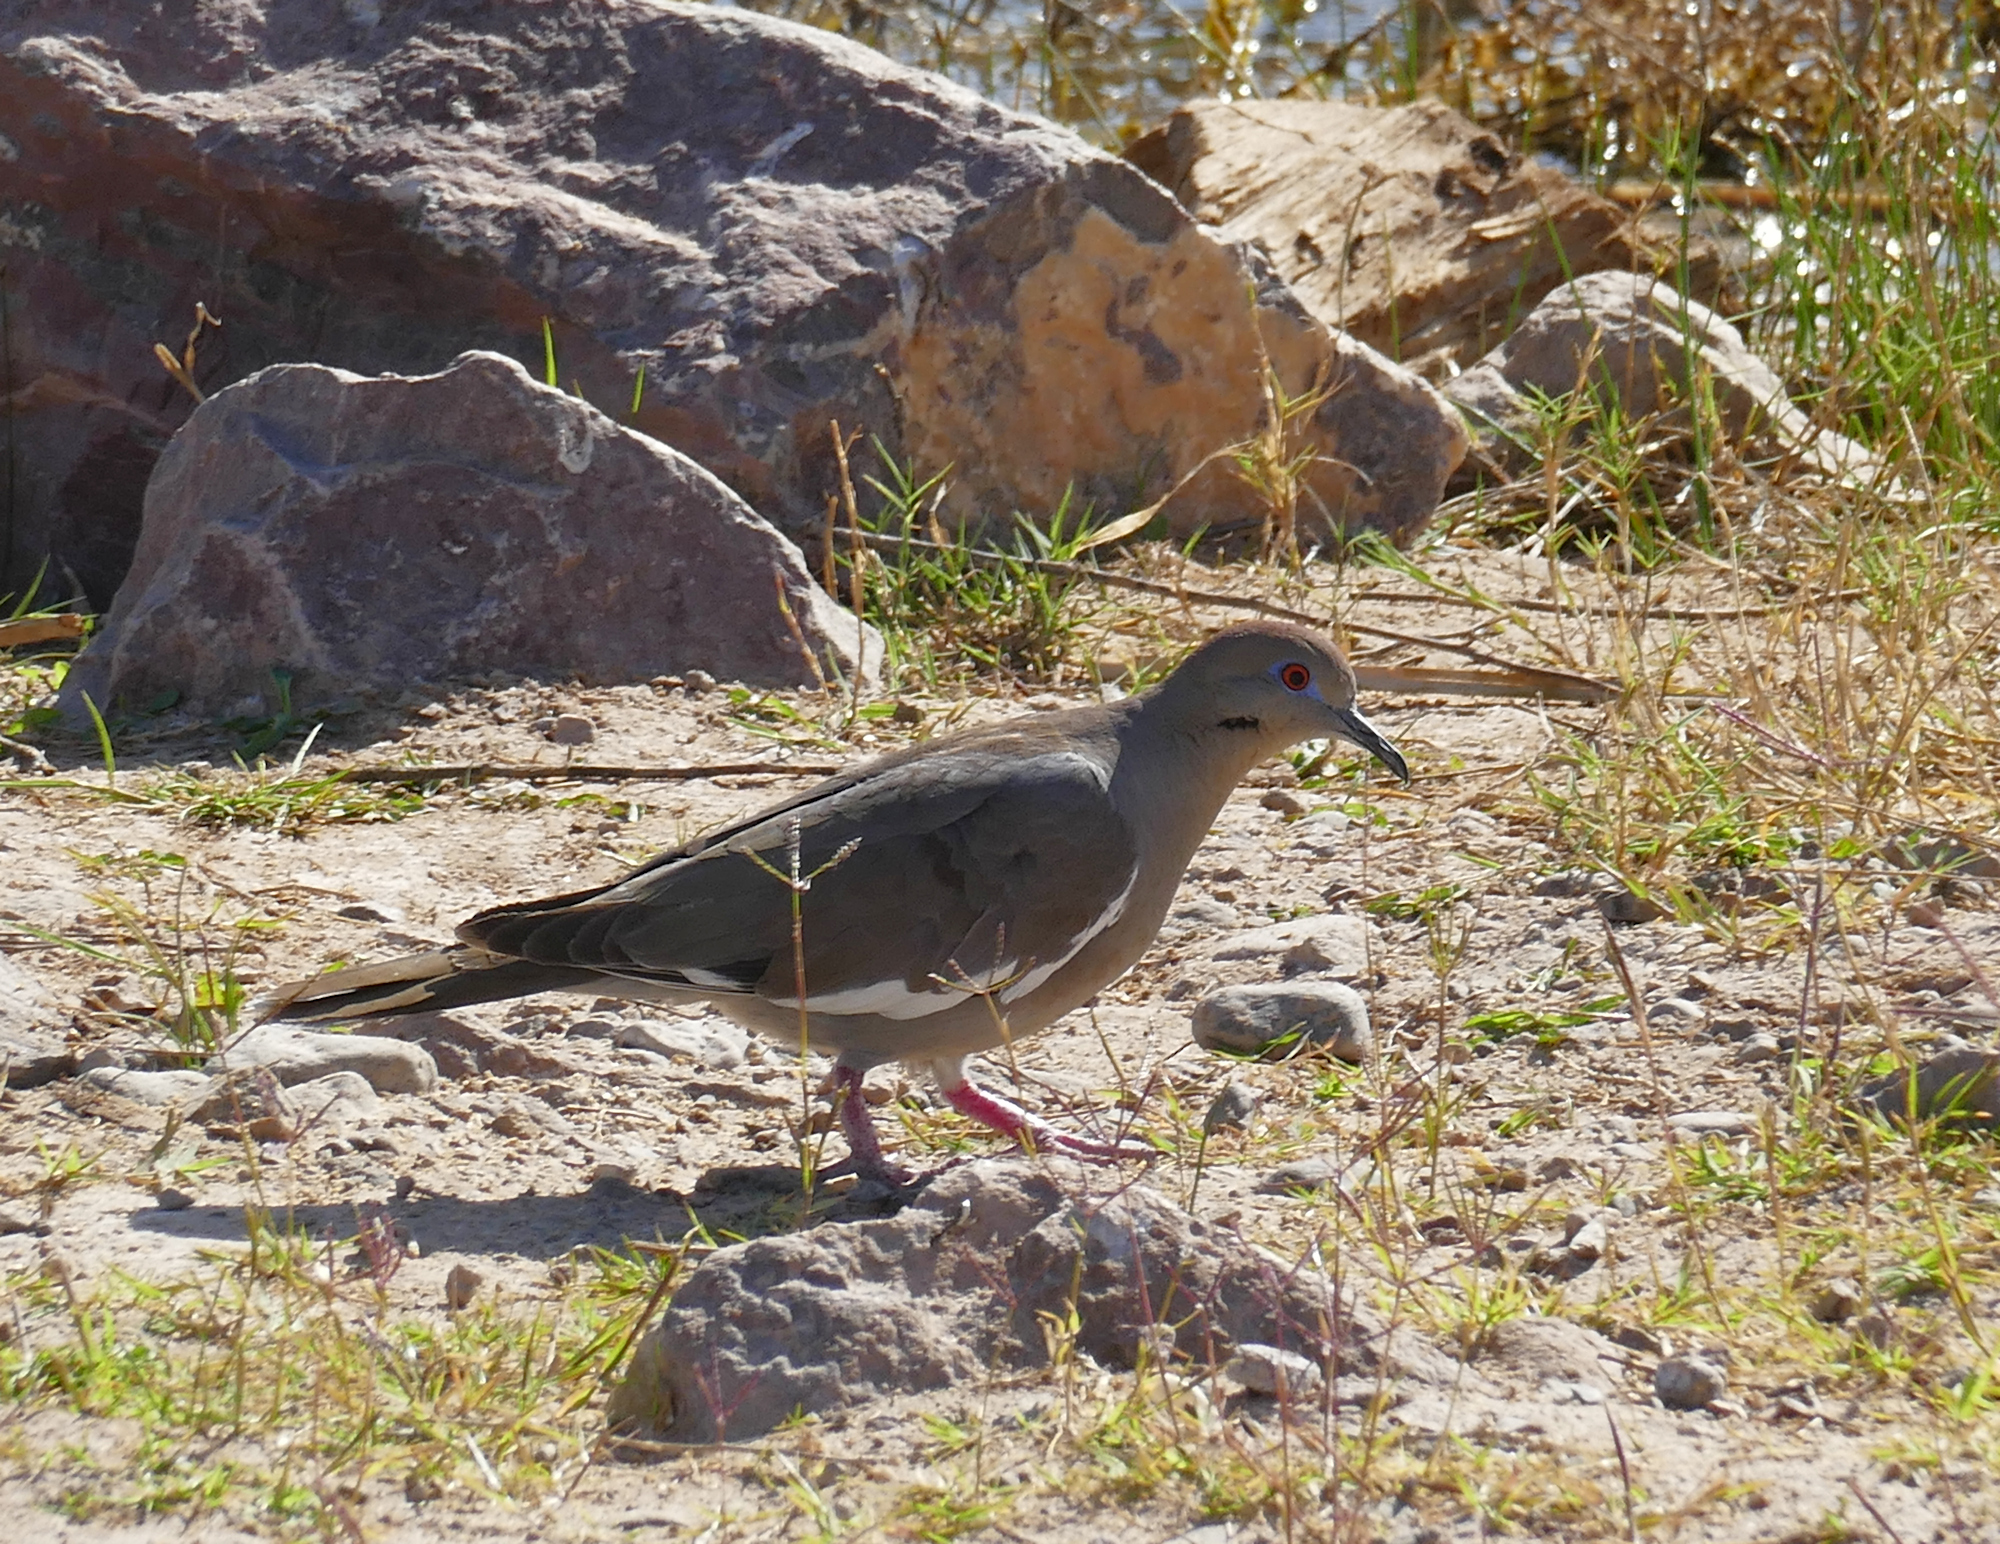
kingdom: Animalia
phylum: Chordata
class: Aves
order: Columbiformes
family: Columbidae
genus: Zenaida
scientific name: Zenaida asiatica
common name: White-winged dove
